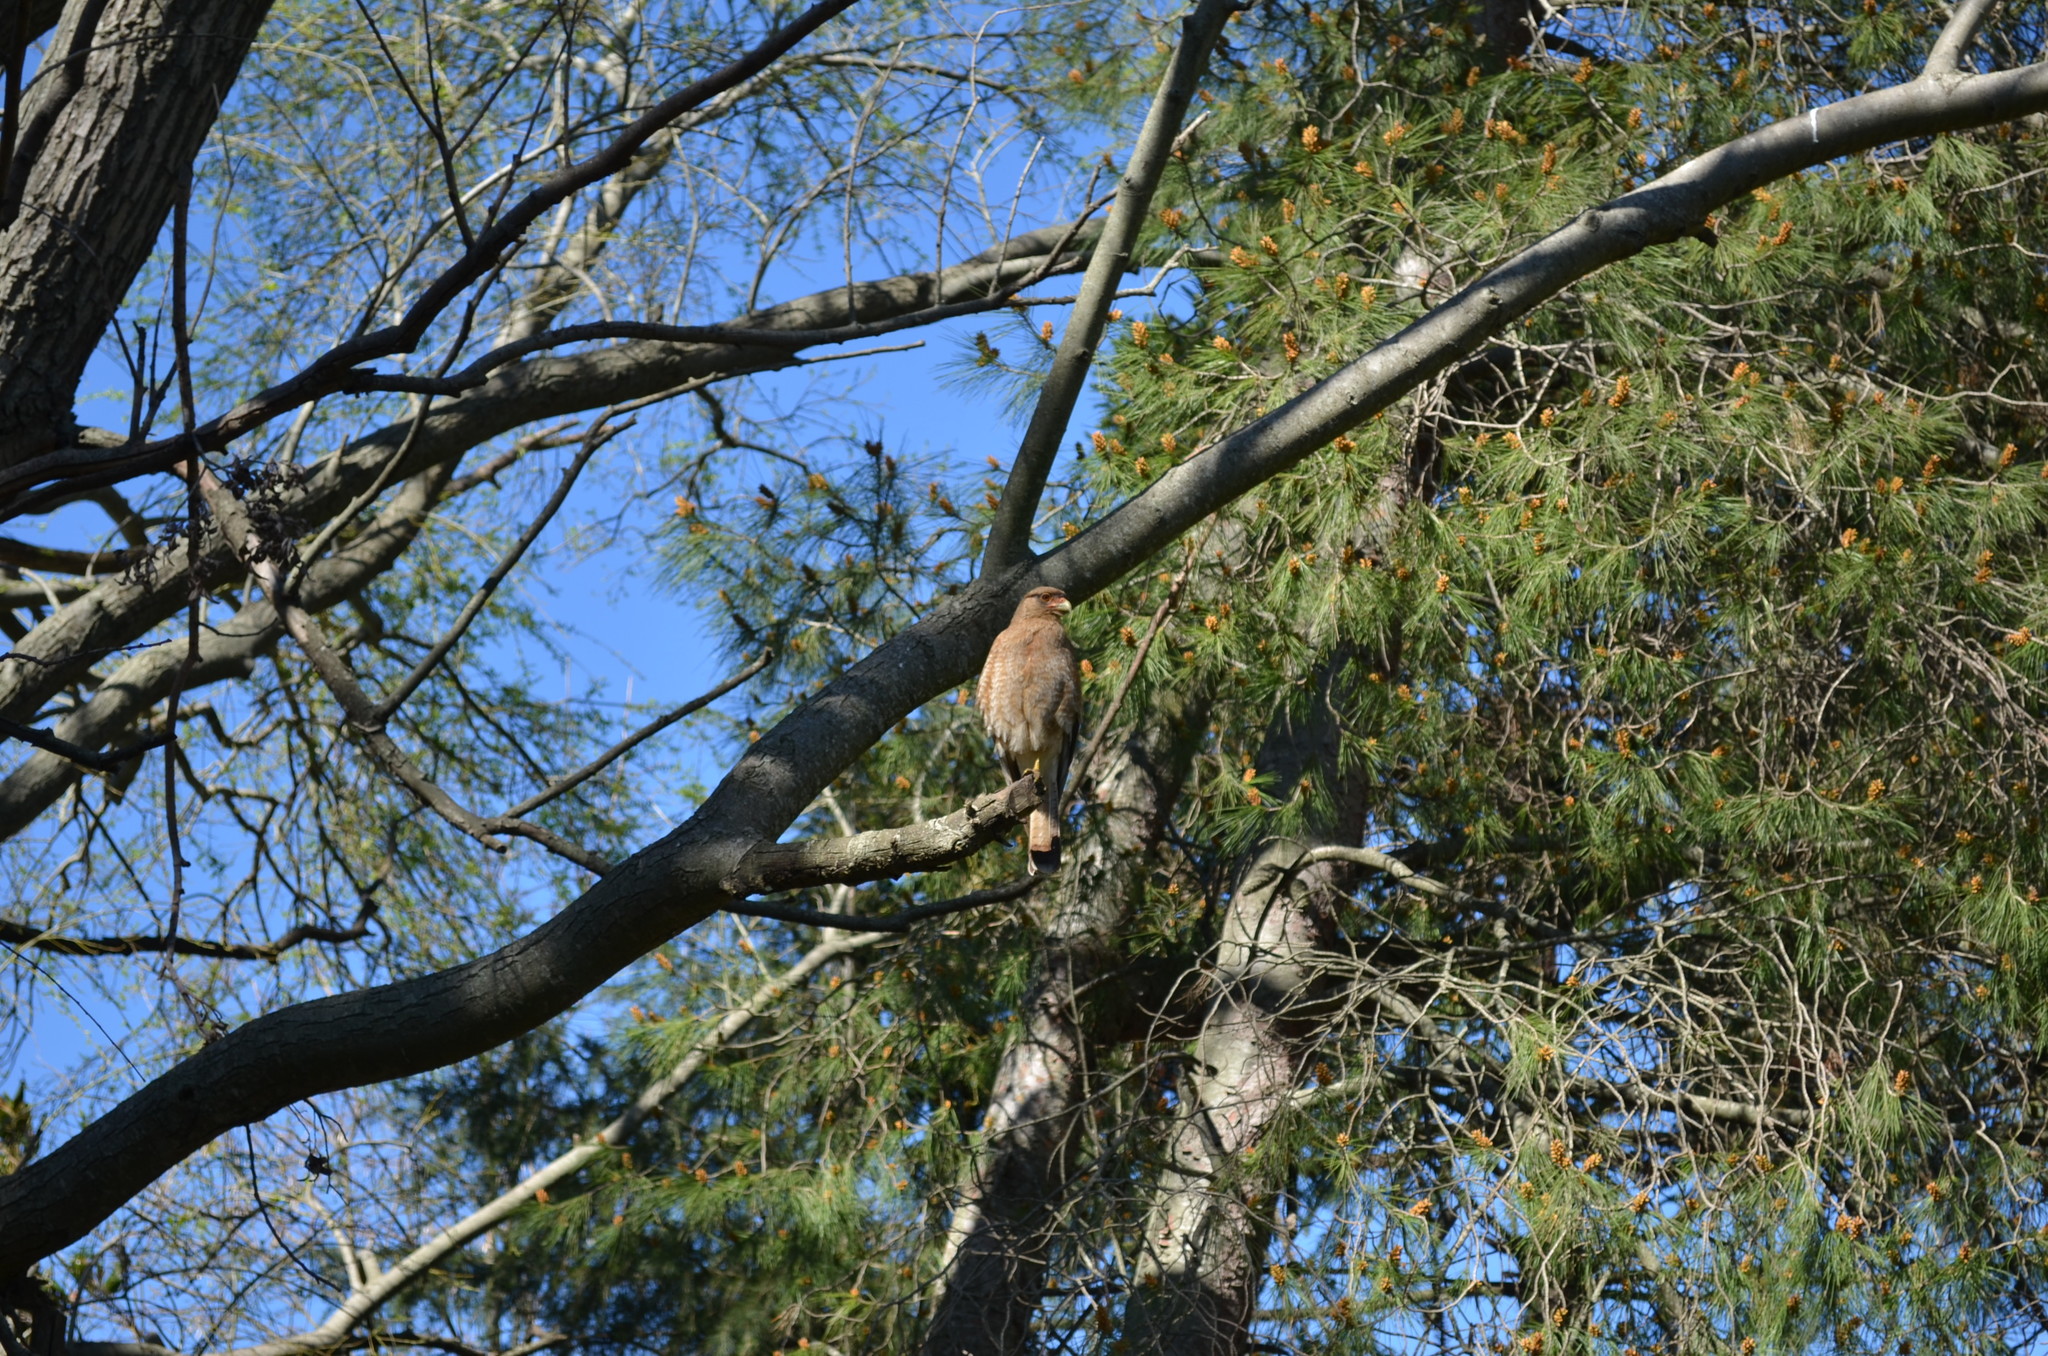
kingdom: Animalia
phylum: Chordata
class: Aves
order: Falconiformes
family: Falconidae
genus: Daptrius
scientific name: Daptrius
